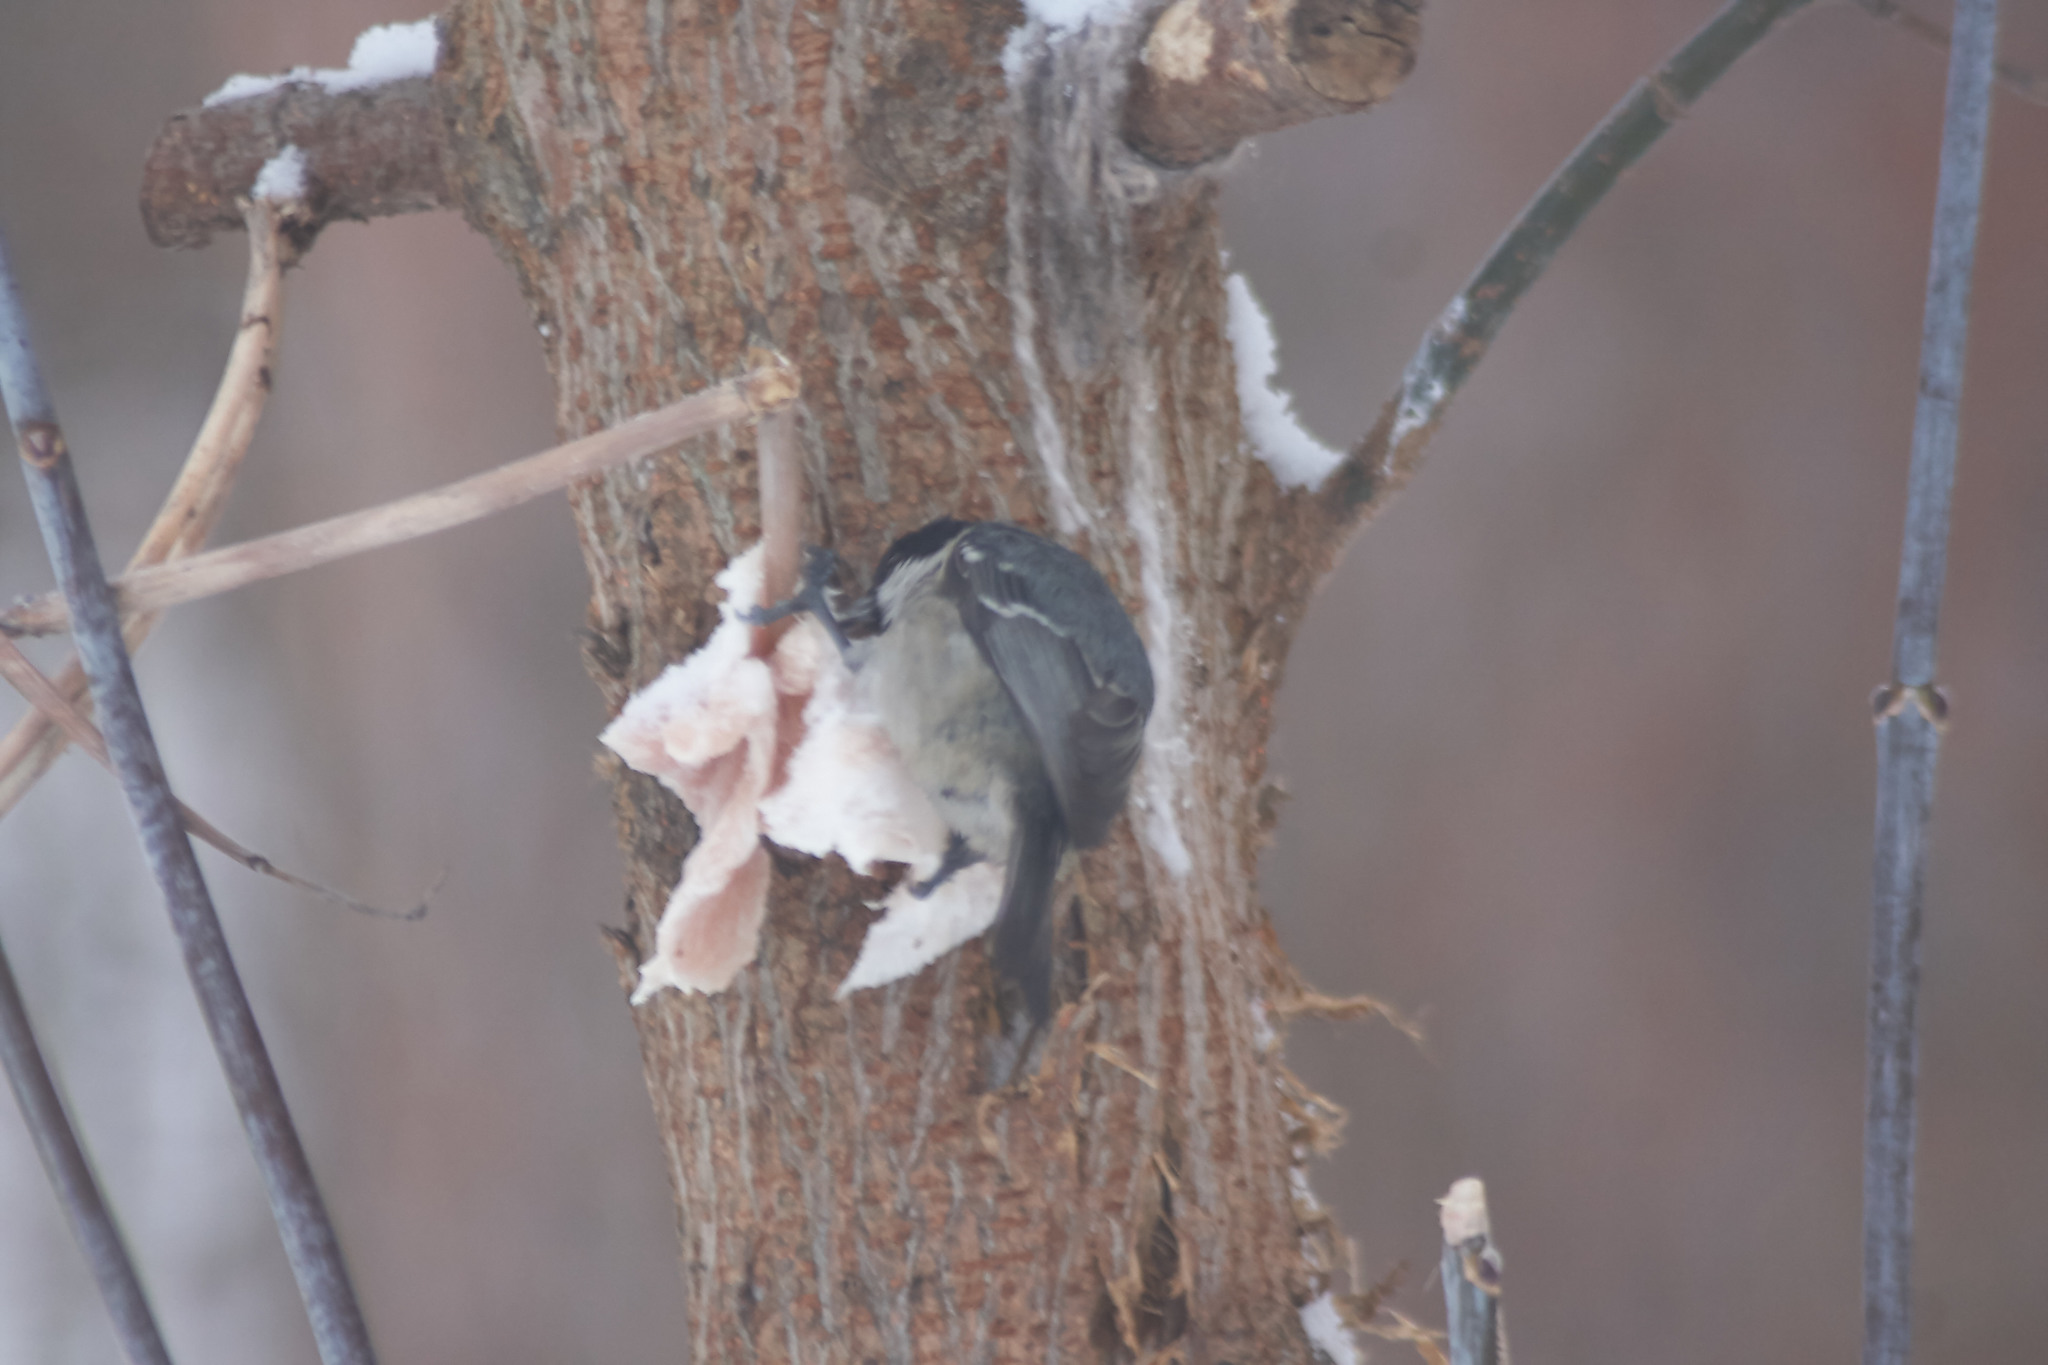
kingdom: Animalia
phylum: Chordata
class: Aves
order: Passeriformes
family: Paridae
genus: Periparus
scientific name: Periparus ater
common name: Coal tit
